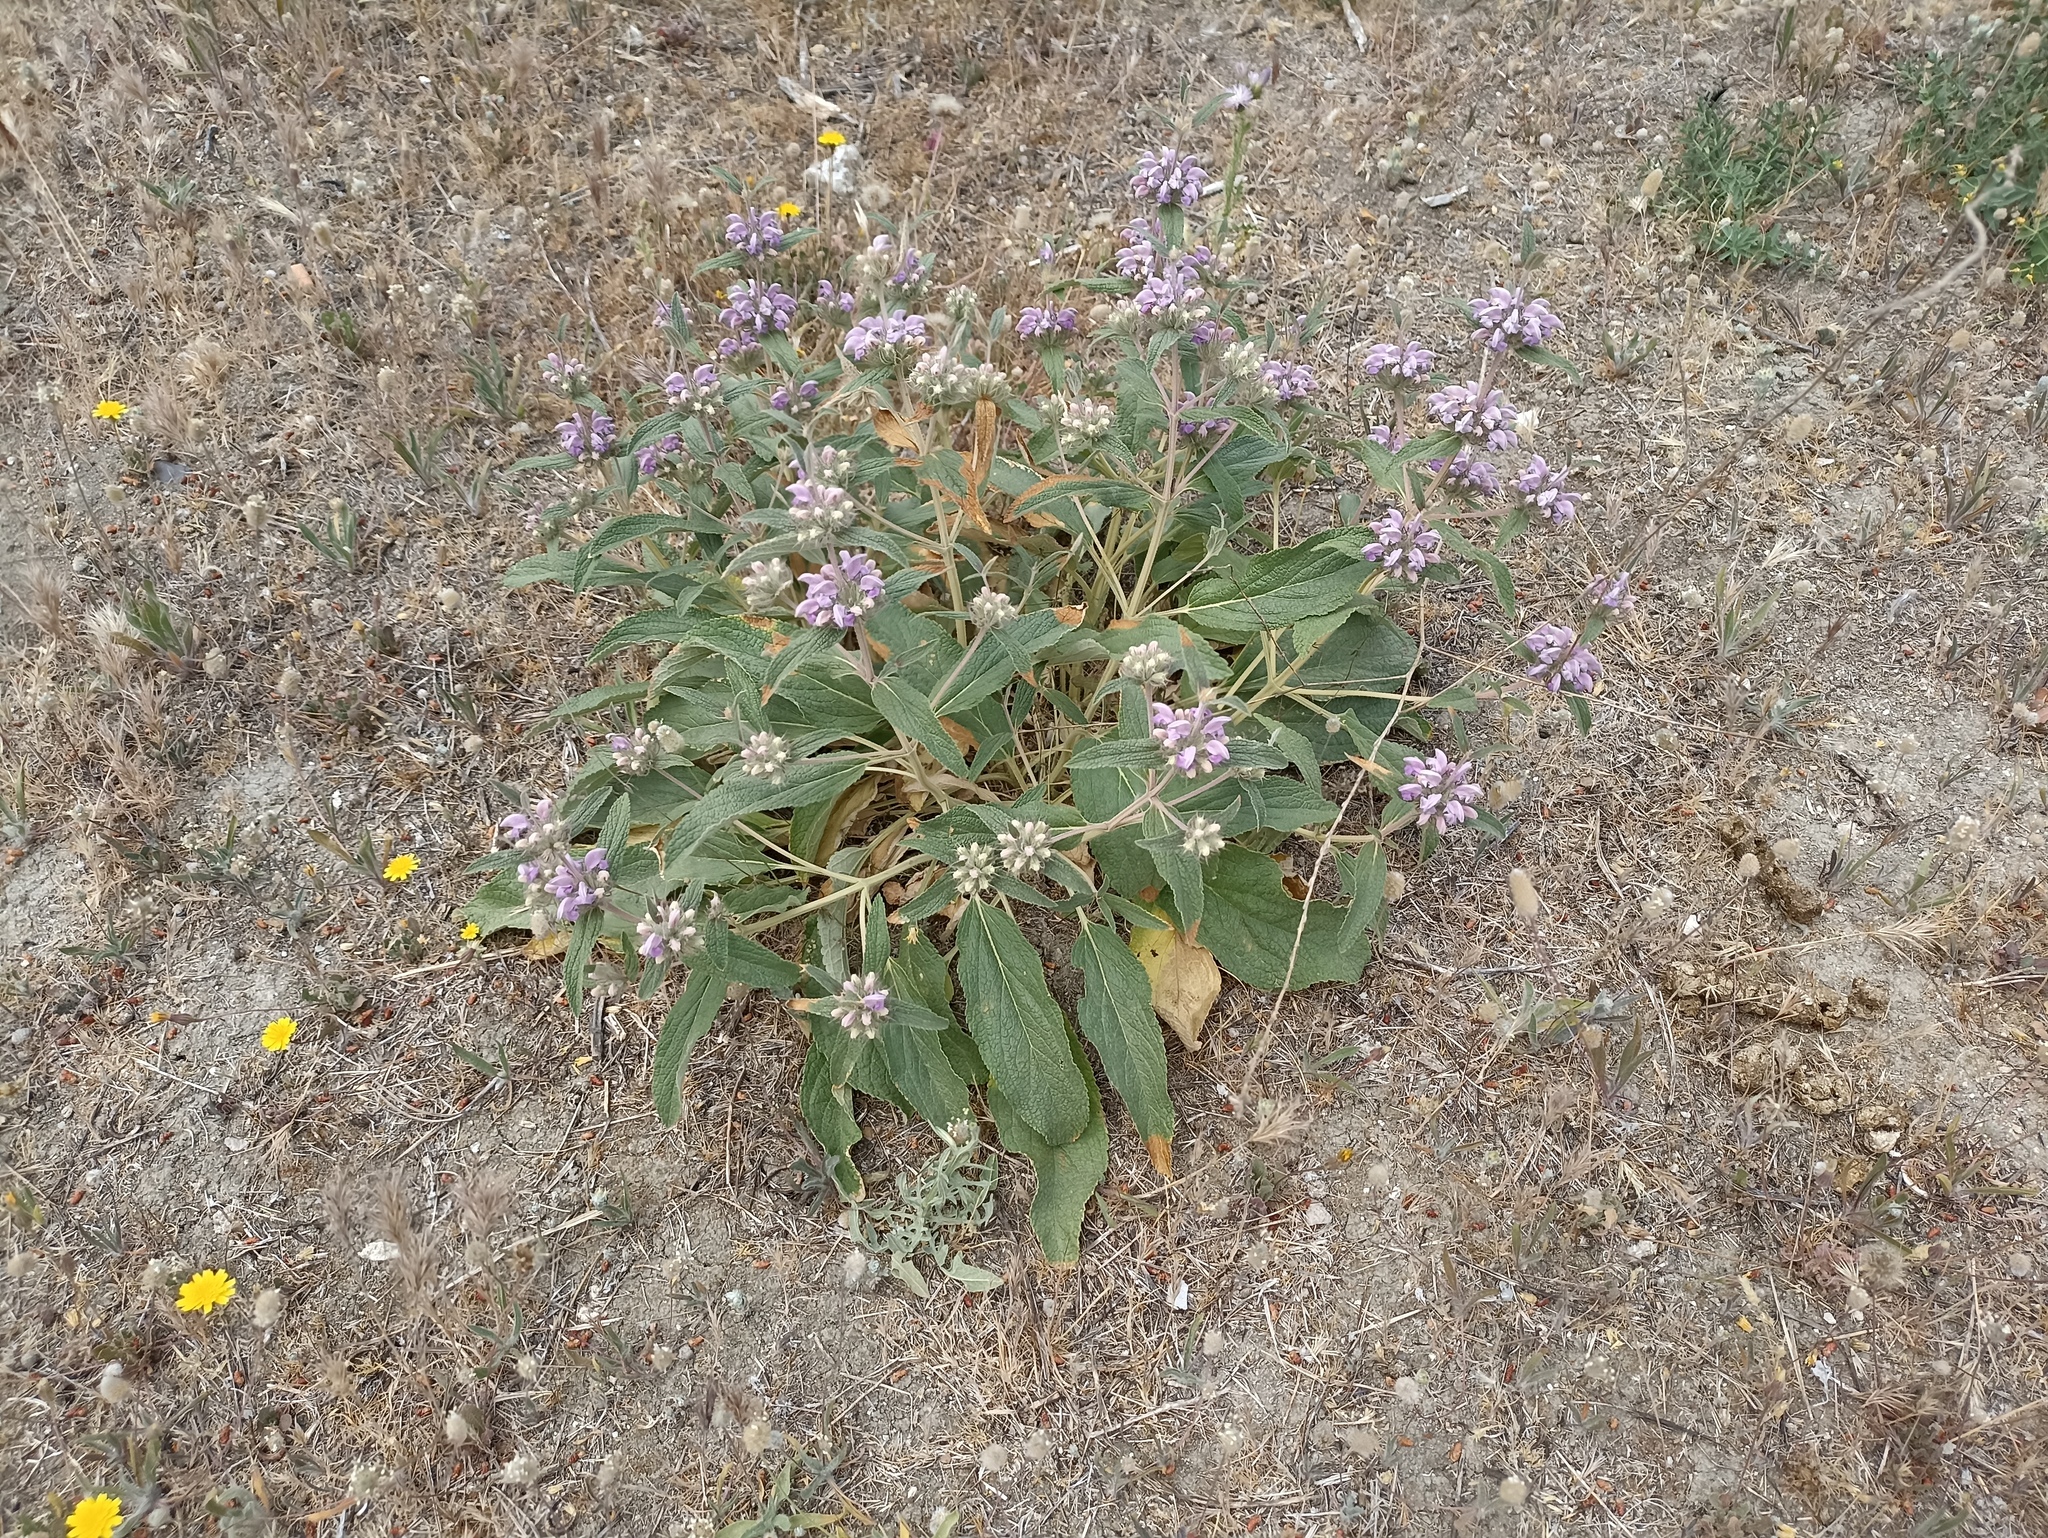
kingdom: Plantae
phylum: Tracheophyta
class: Magnoliopsida
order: Lamiales
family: Lamiaceae
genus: Phlomis
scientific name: Phlomis herba-venti
